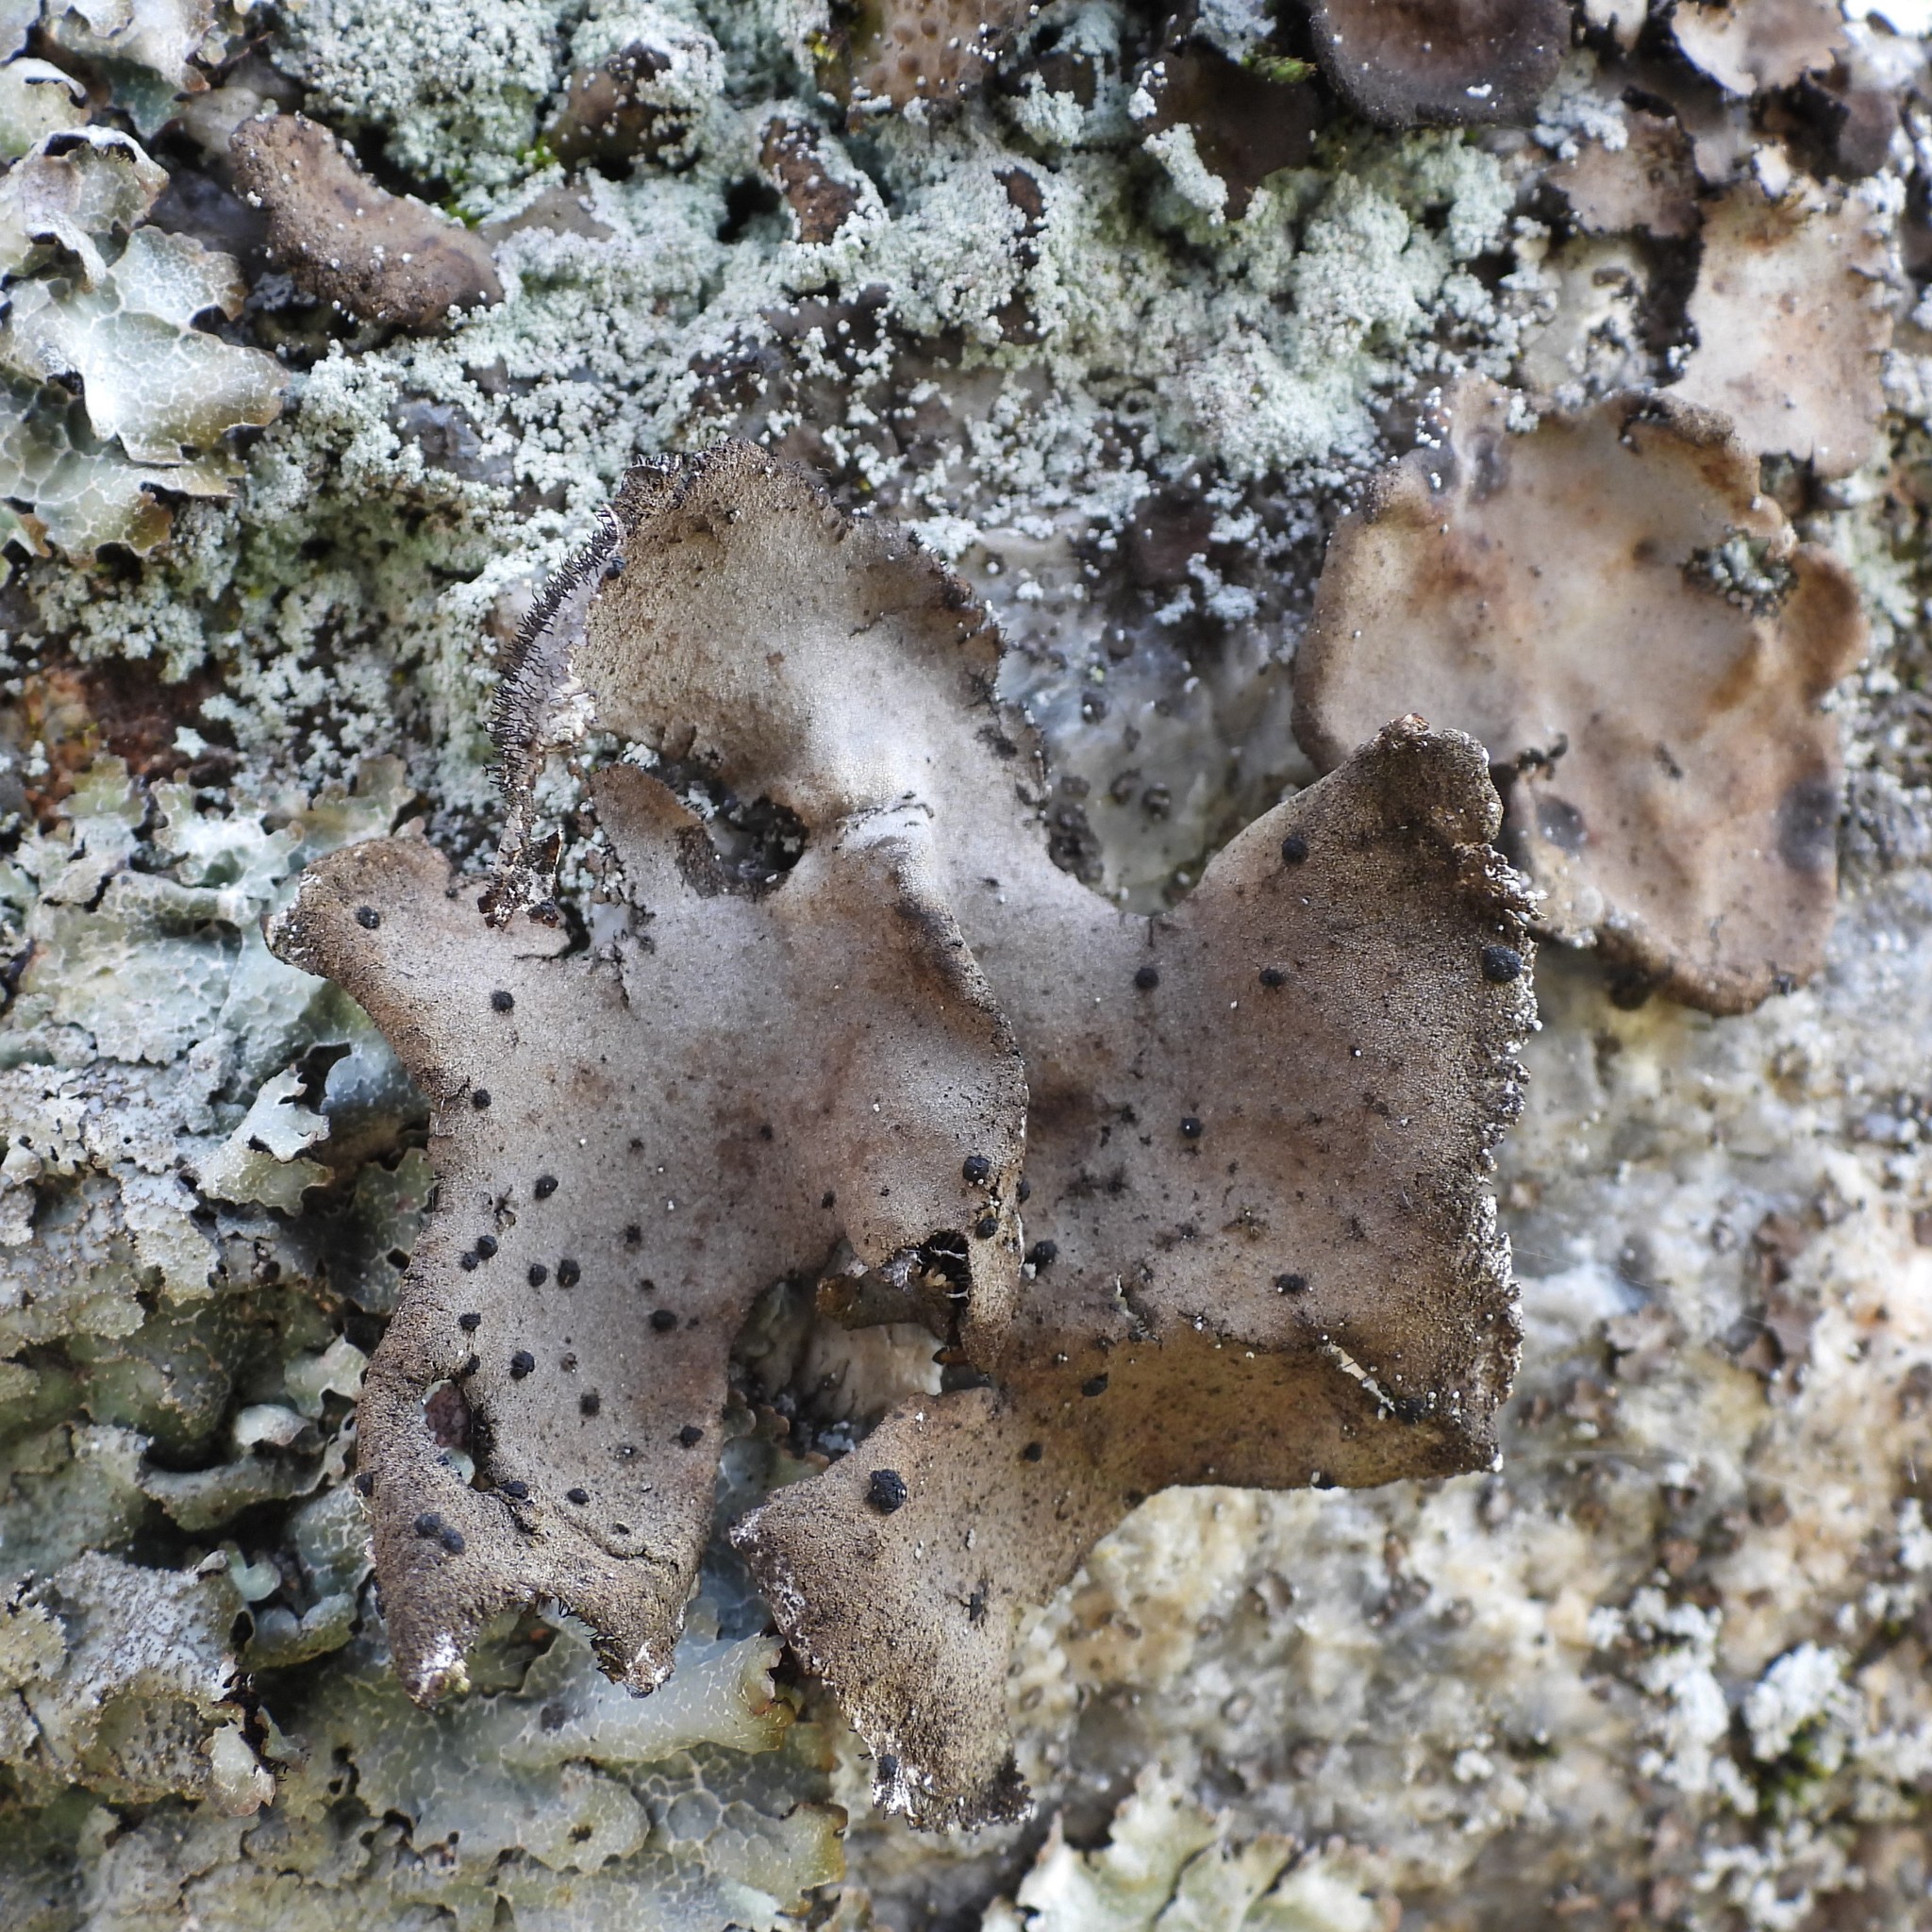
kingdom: Fungi
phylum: Ascomycota
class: Lecanoromycetes
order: Umbilicariales
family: Umbilicariaceae
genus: Umbilicaria
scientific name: Umbilicaria hirsuta
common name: Granulating rocktripe lichen
